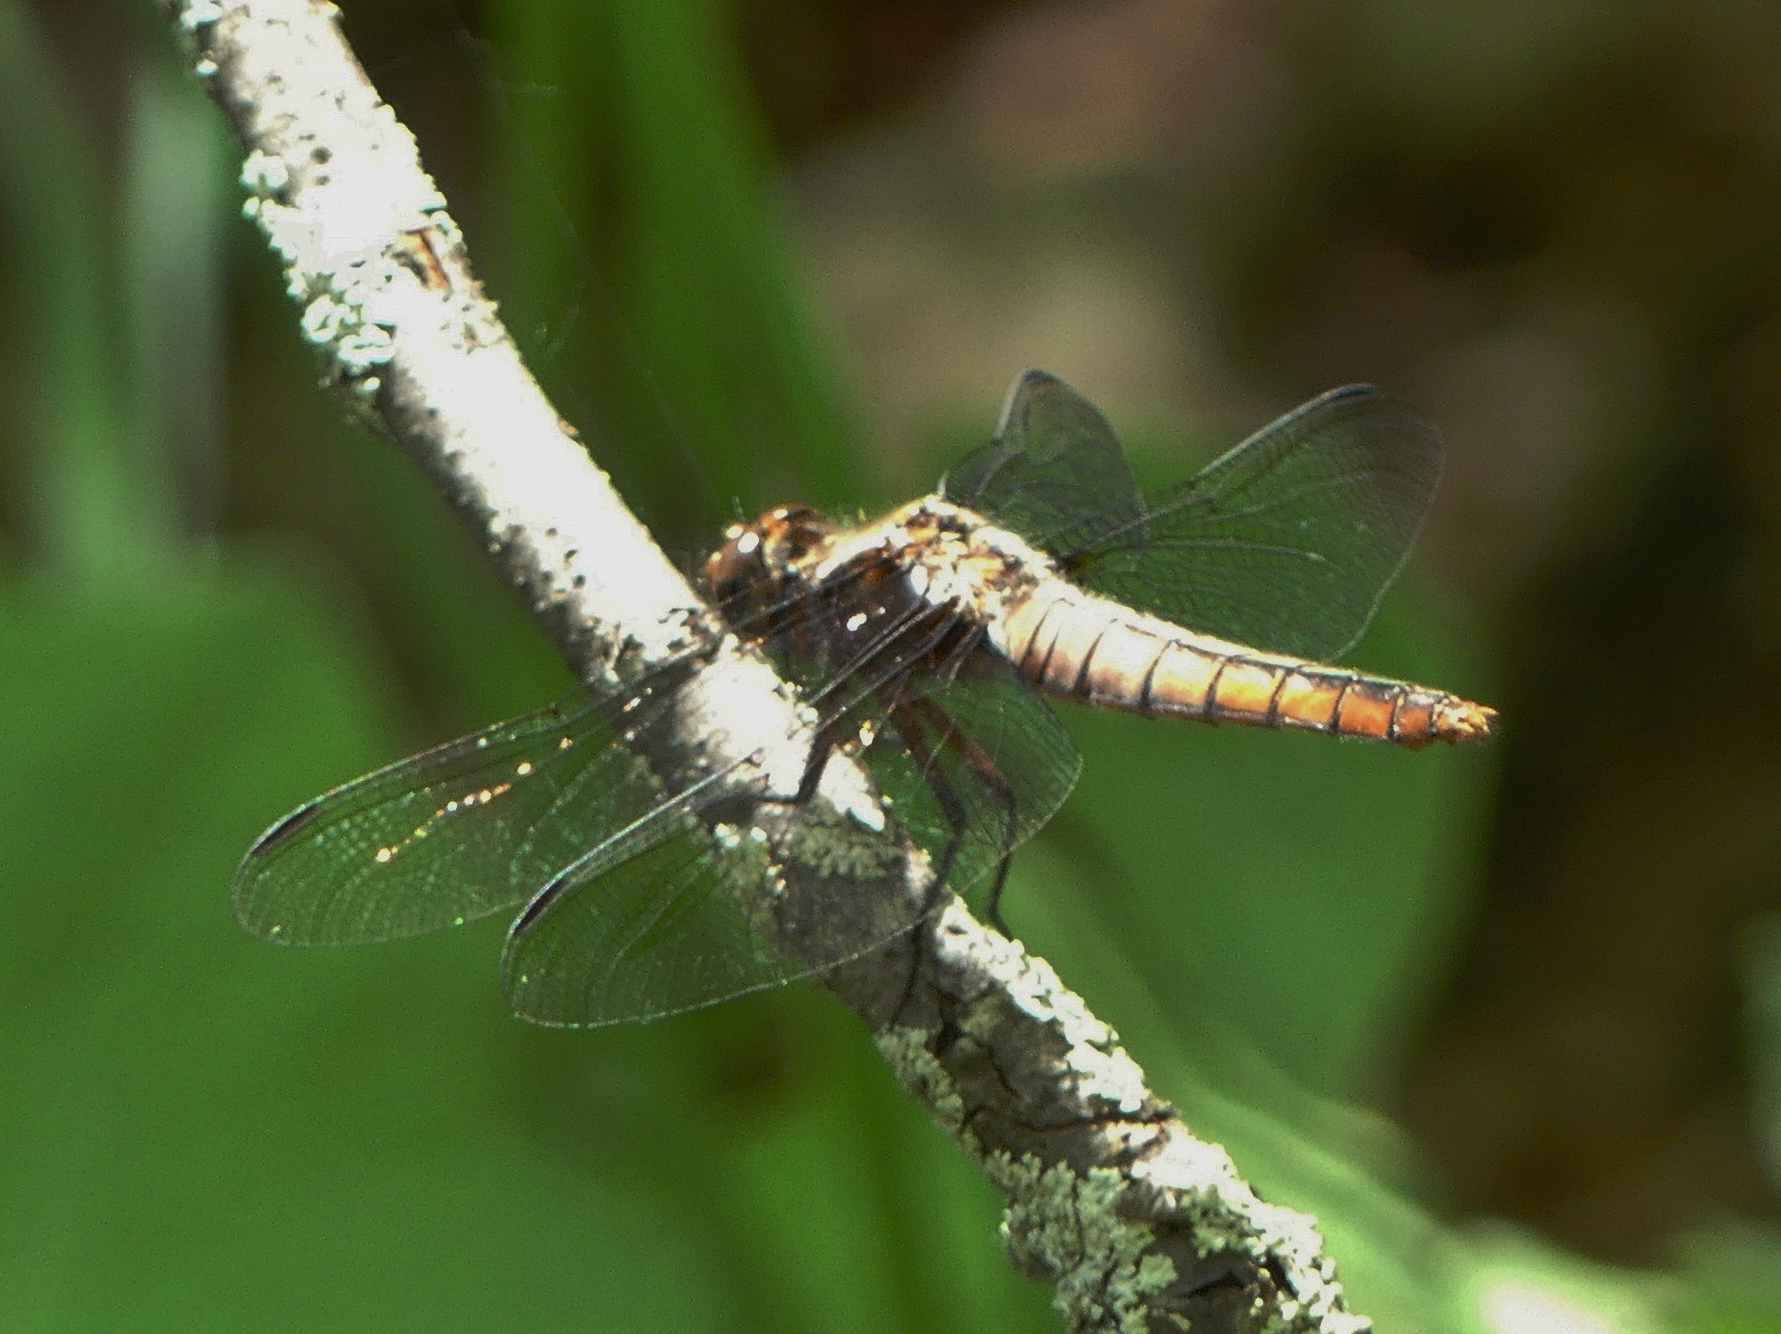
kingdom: Animalia
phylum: Arthropoda
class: Insecta
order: Odonata
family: Libellulidae
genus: Ladona
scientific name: Ladona julia
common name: Chalk-fronted corporal
